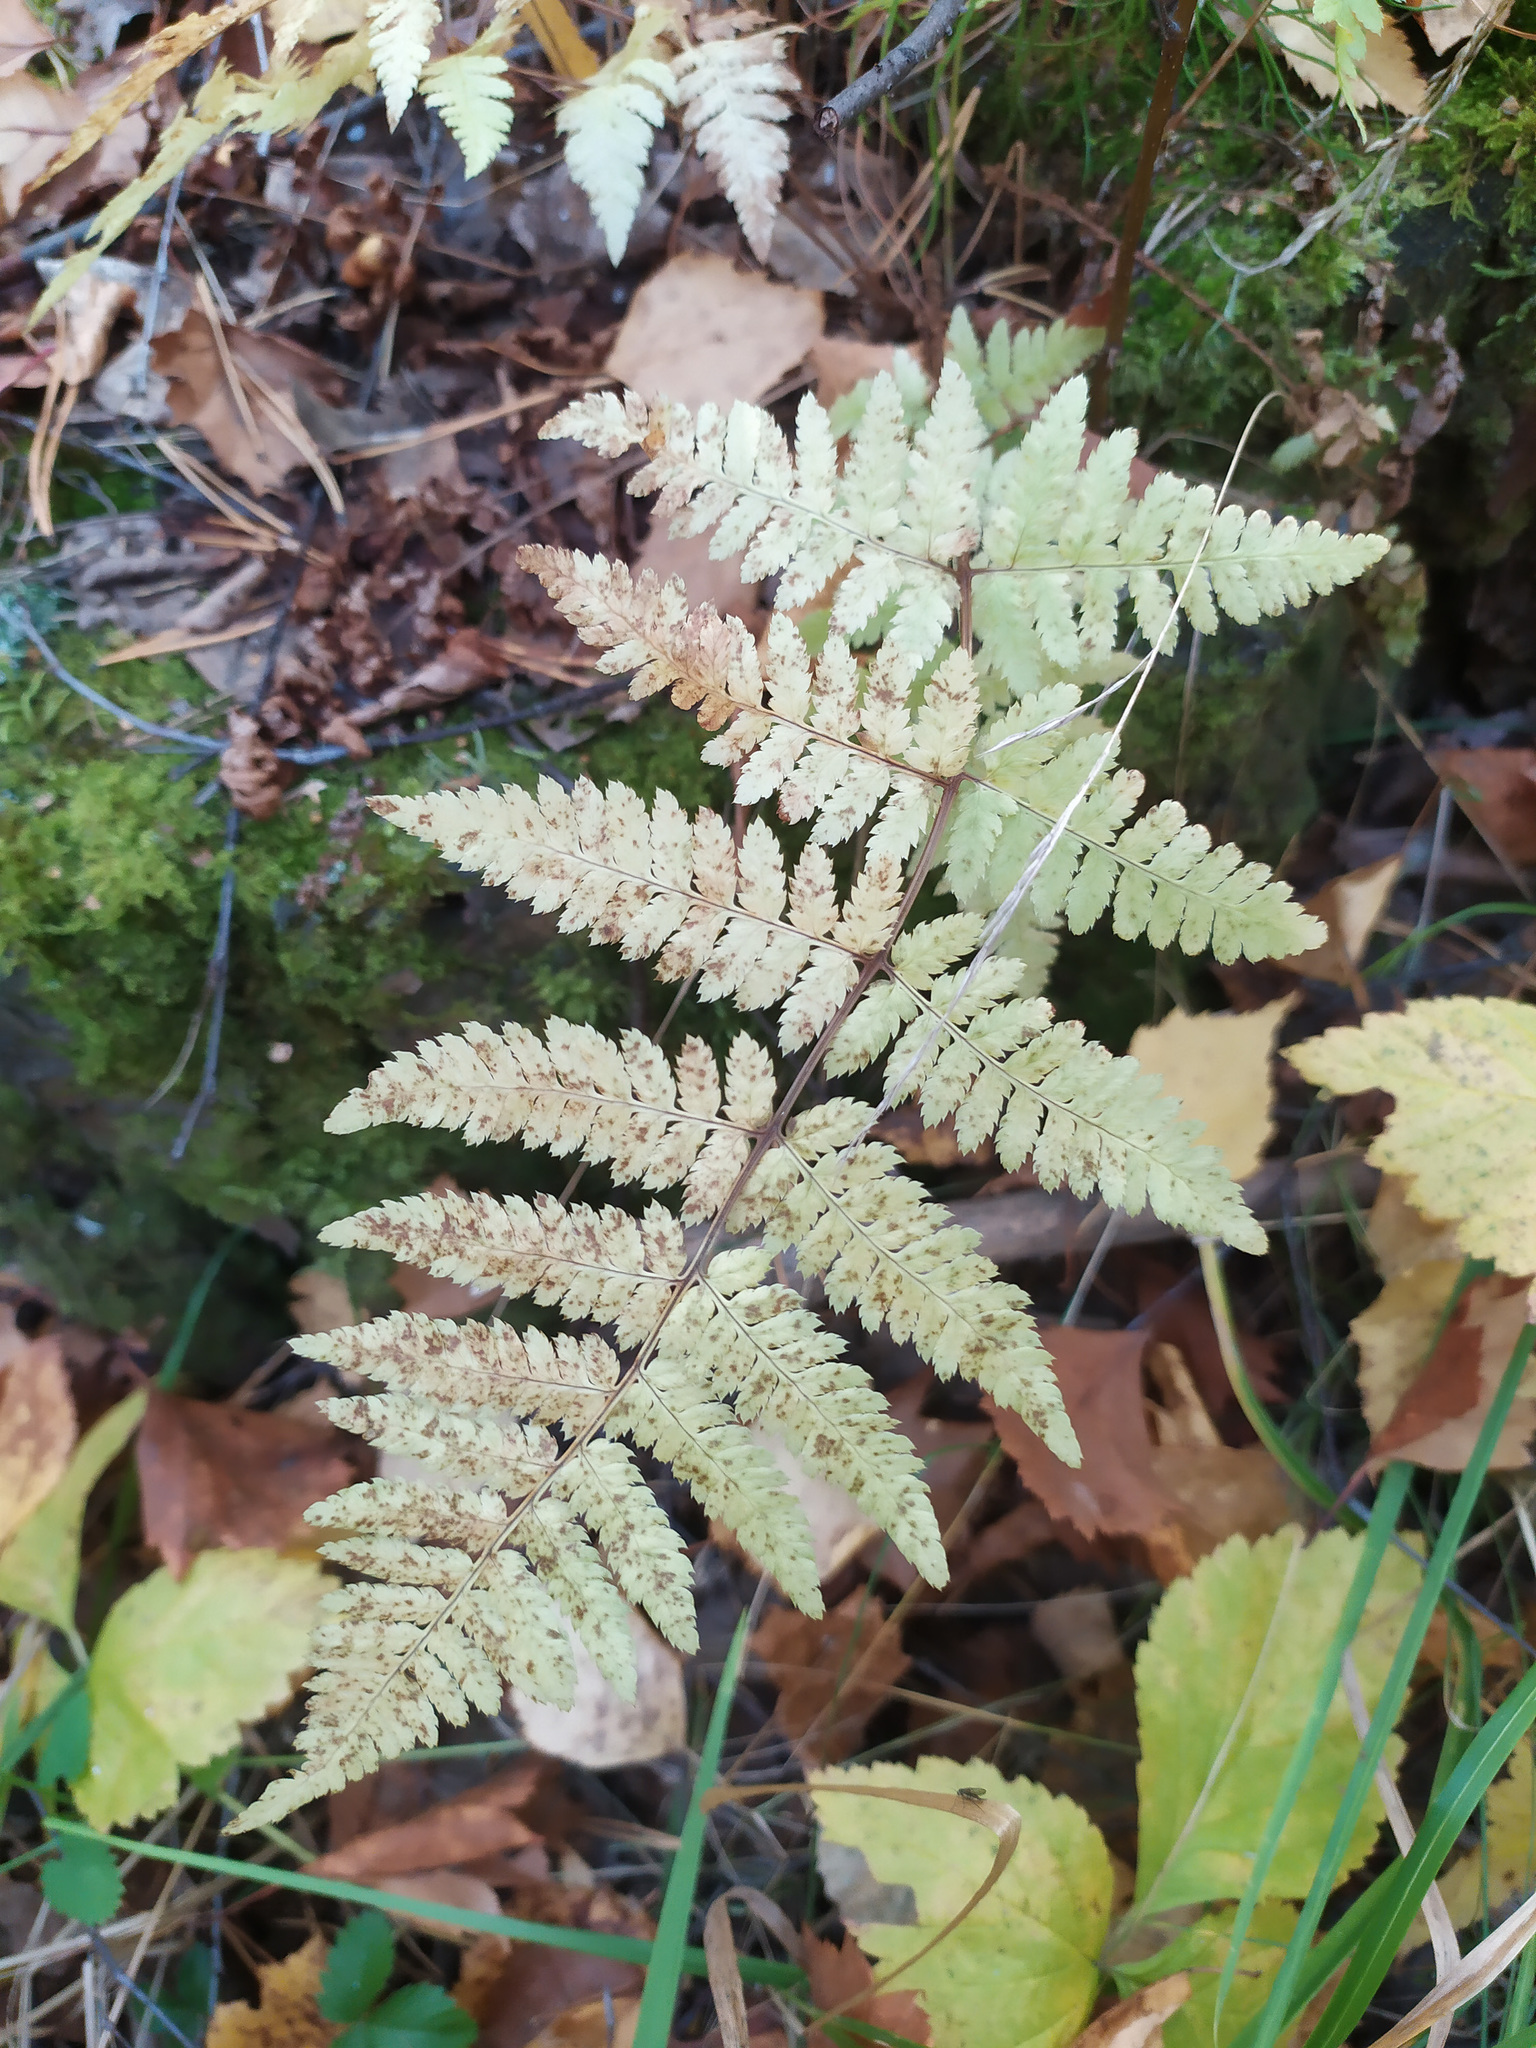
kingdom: Plantae
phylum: Tracheophyta
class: Polypodiopsida
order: Polypodiales
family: Dryopteridaceae
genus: Dryopteris
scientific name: Dryopteris carthusiana
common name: Narrow buckler-fern
